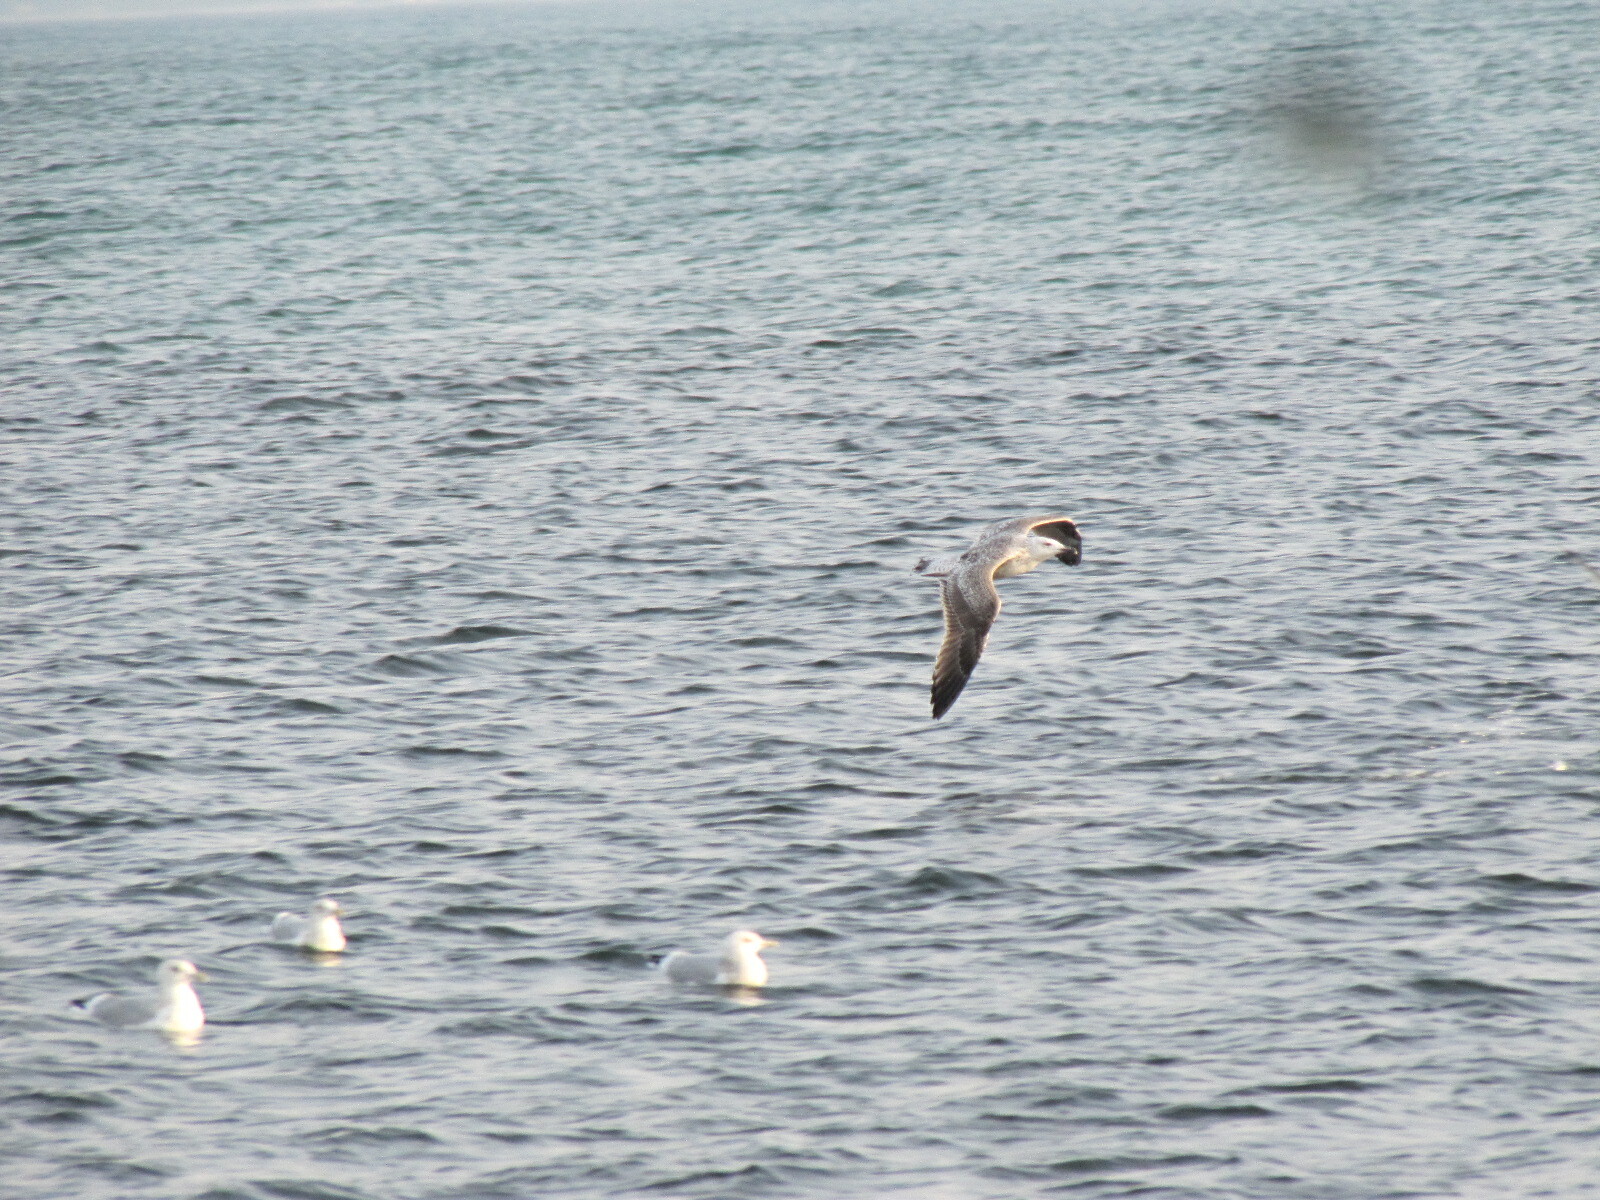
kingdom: Animalia
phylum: Chordata
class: Aves
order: Charadriiformes
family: Laridae
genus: Larus
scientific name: Larus marinus
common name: Great black-backed gull
